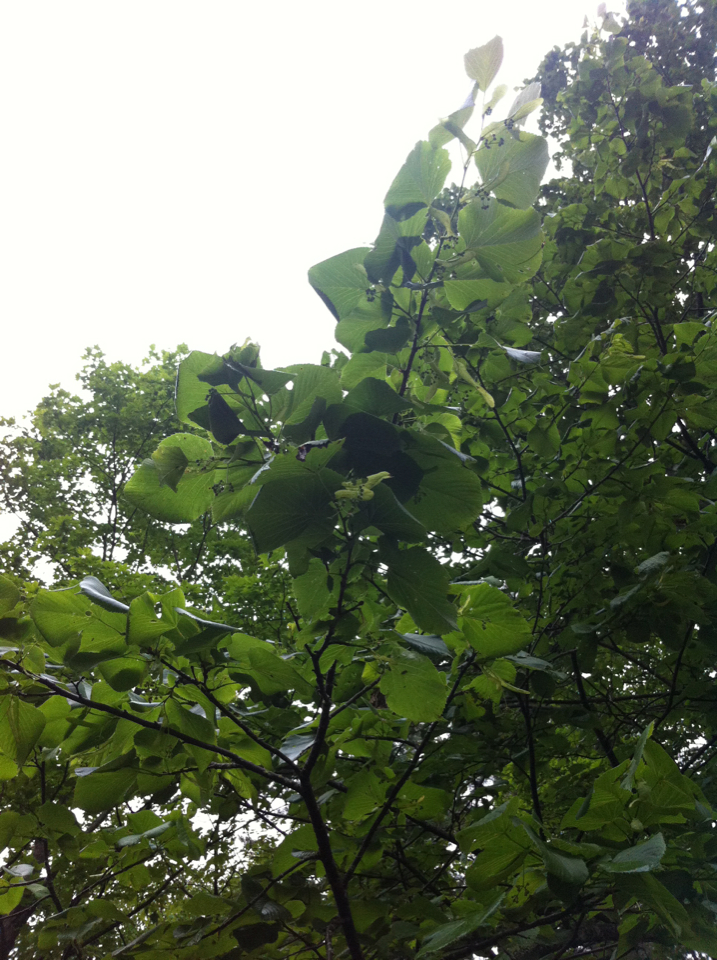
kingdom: Plantae
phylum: Tracheophyta
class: Magnoliopsida
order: Malvales
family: Malvaceae
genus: Tilia
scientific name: Tilia americana
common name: Basswood
